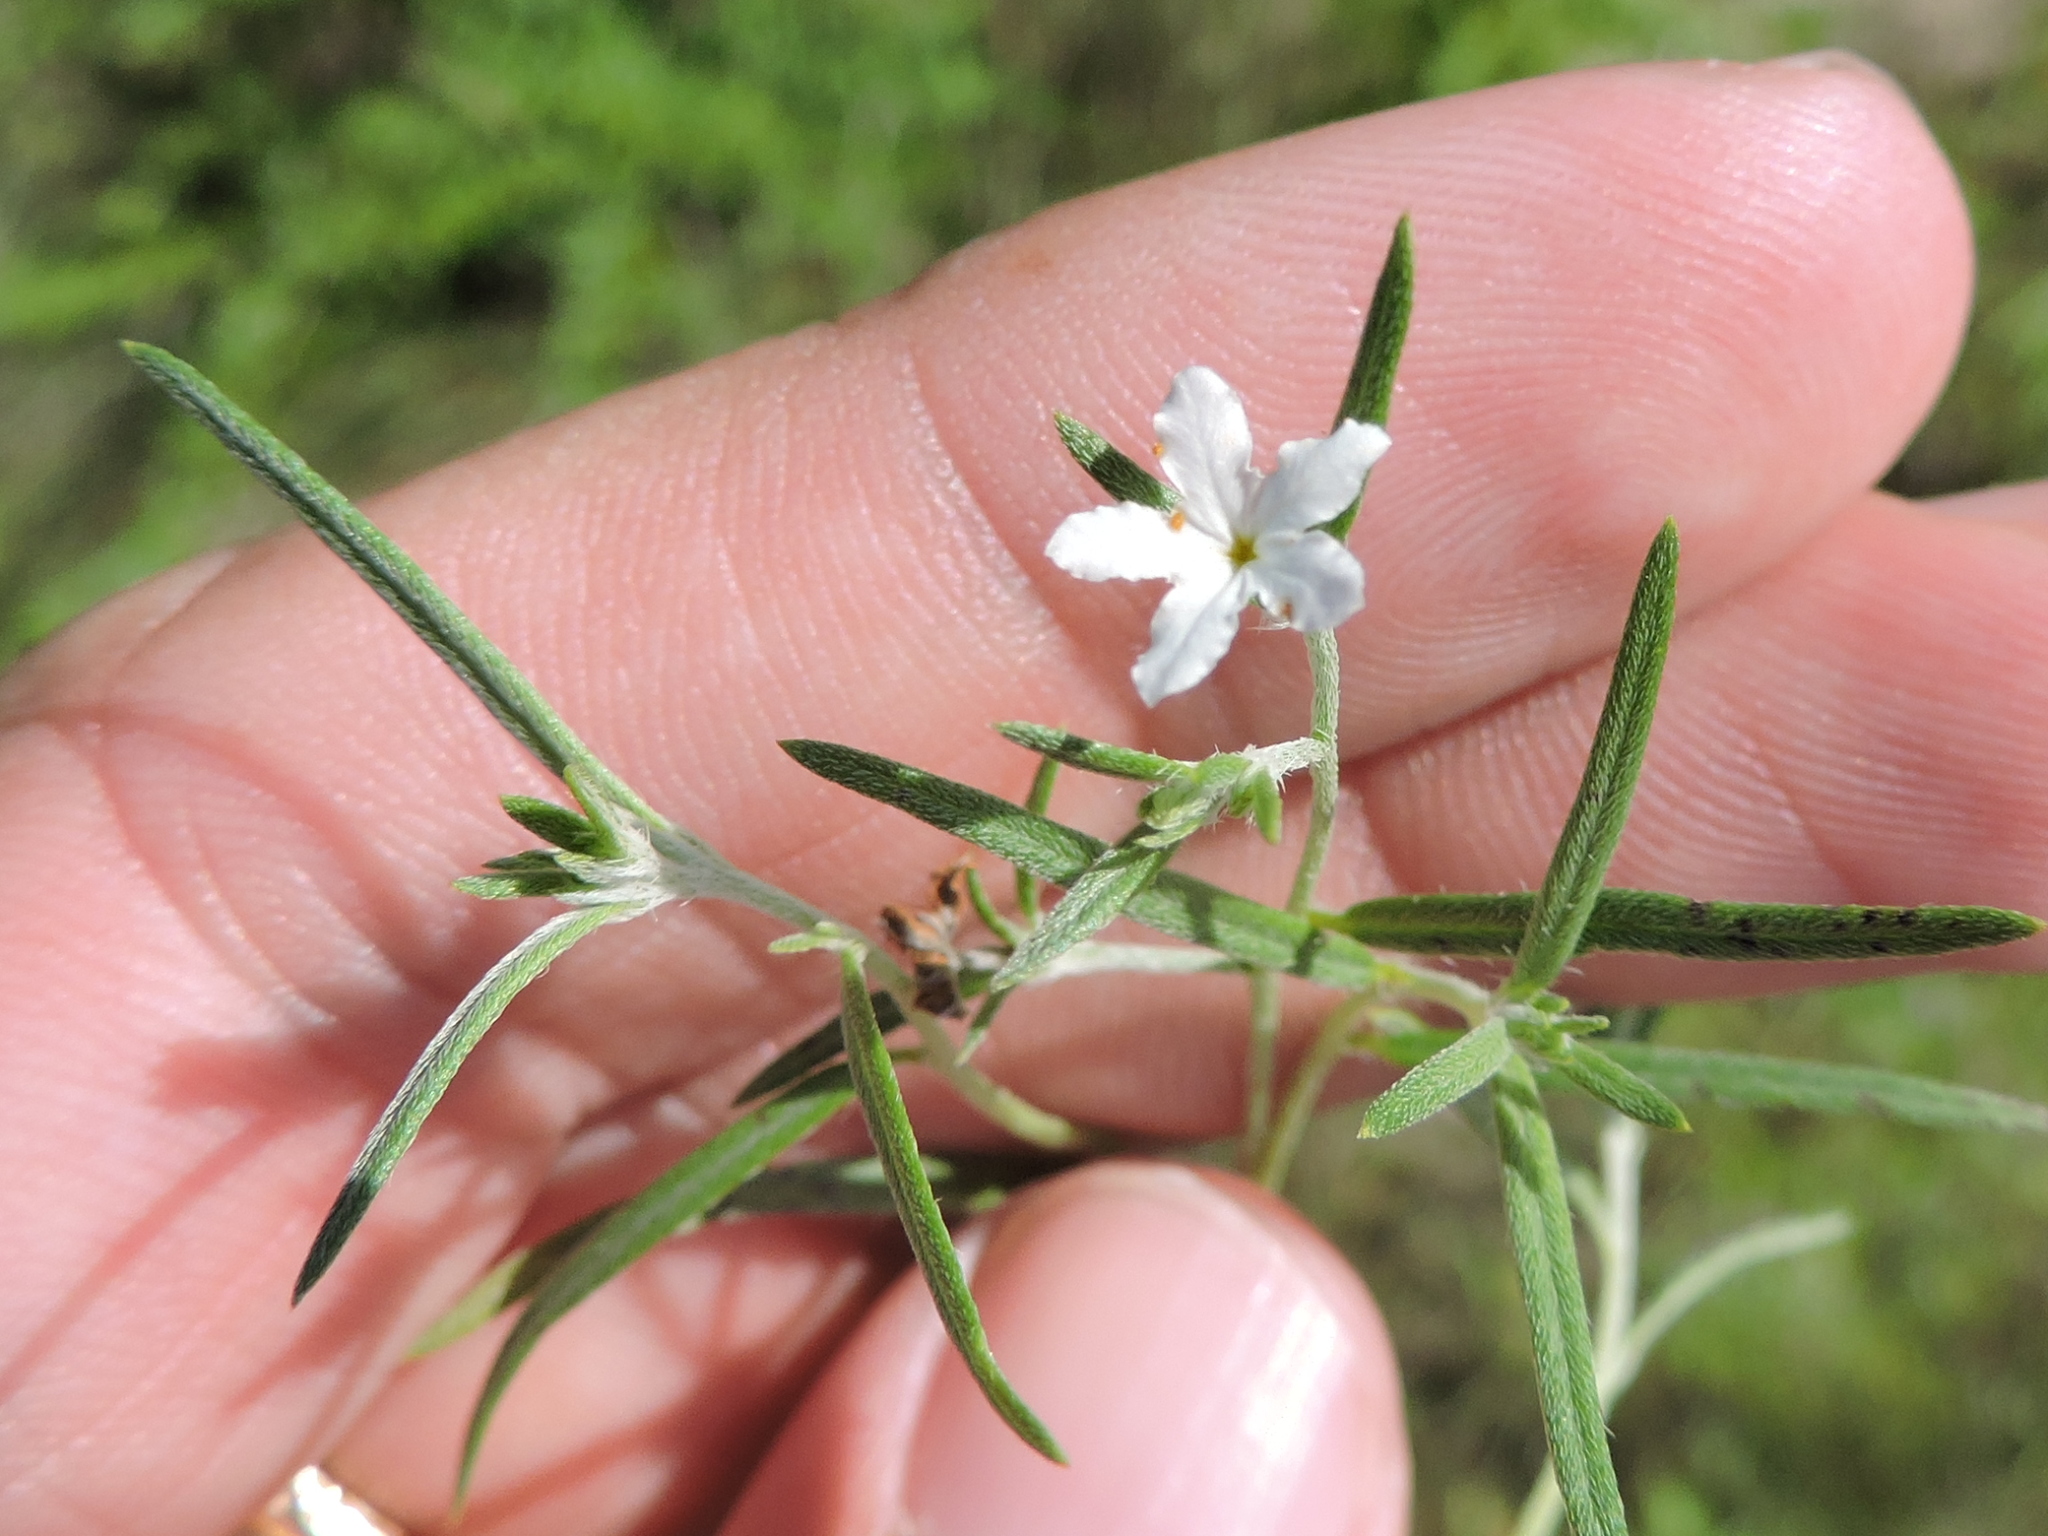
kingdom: Plantae
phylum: Tracheophyta
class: Magnoliopsida
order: Boraginales
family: Heliotropiaceae
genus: Euploca
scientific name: Euploca tenella
